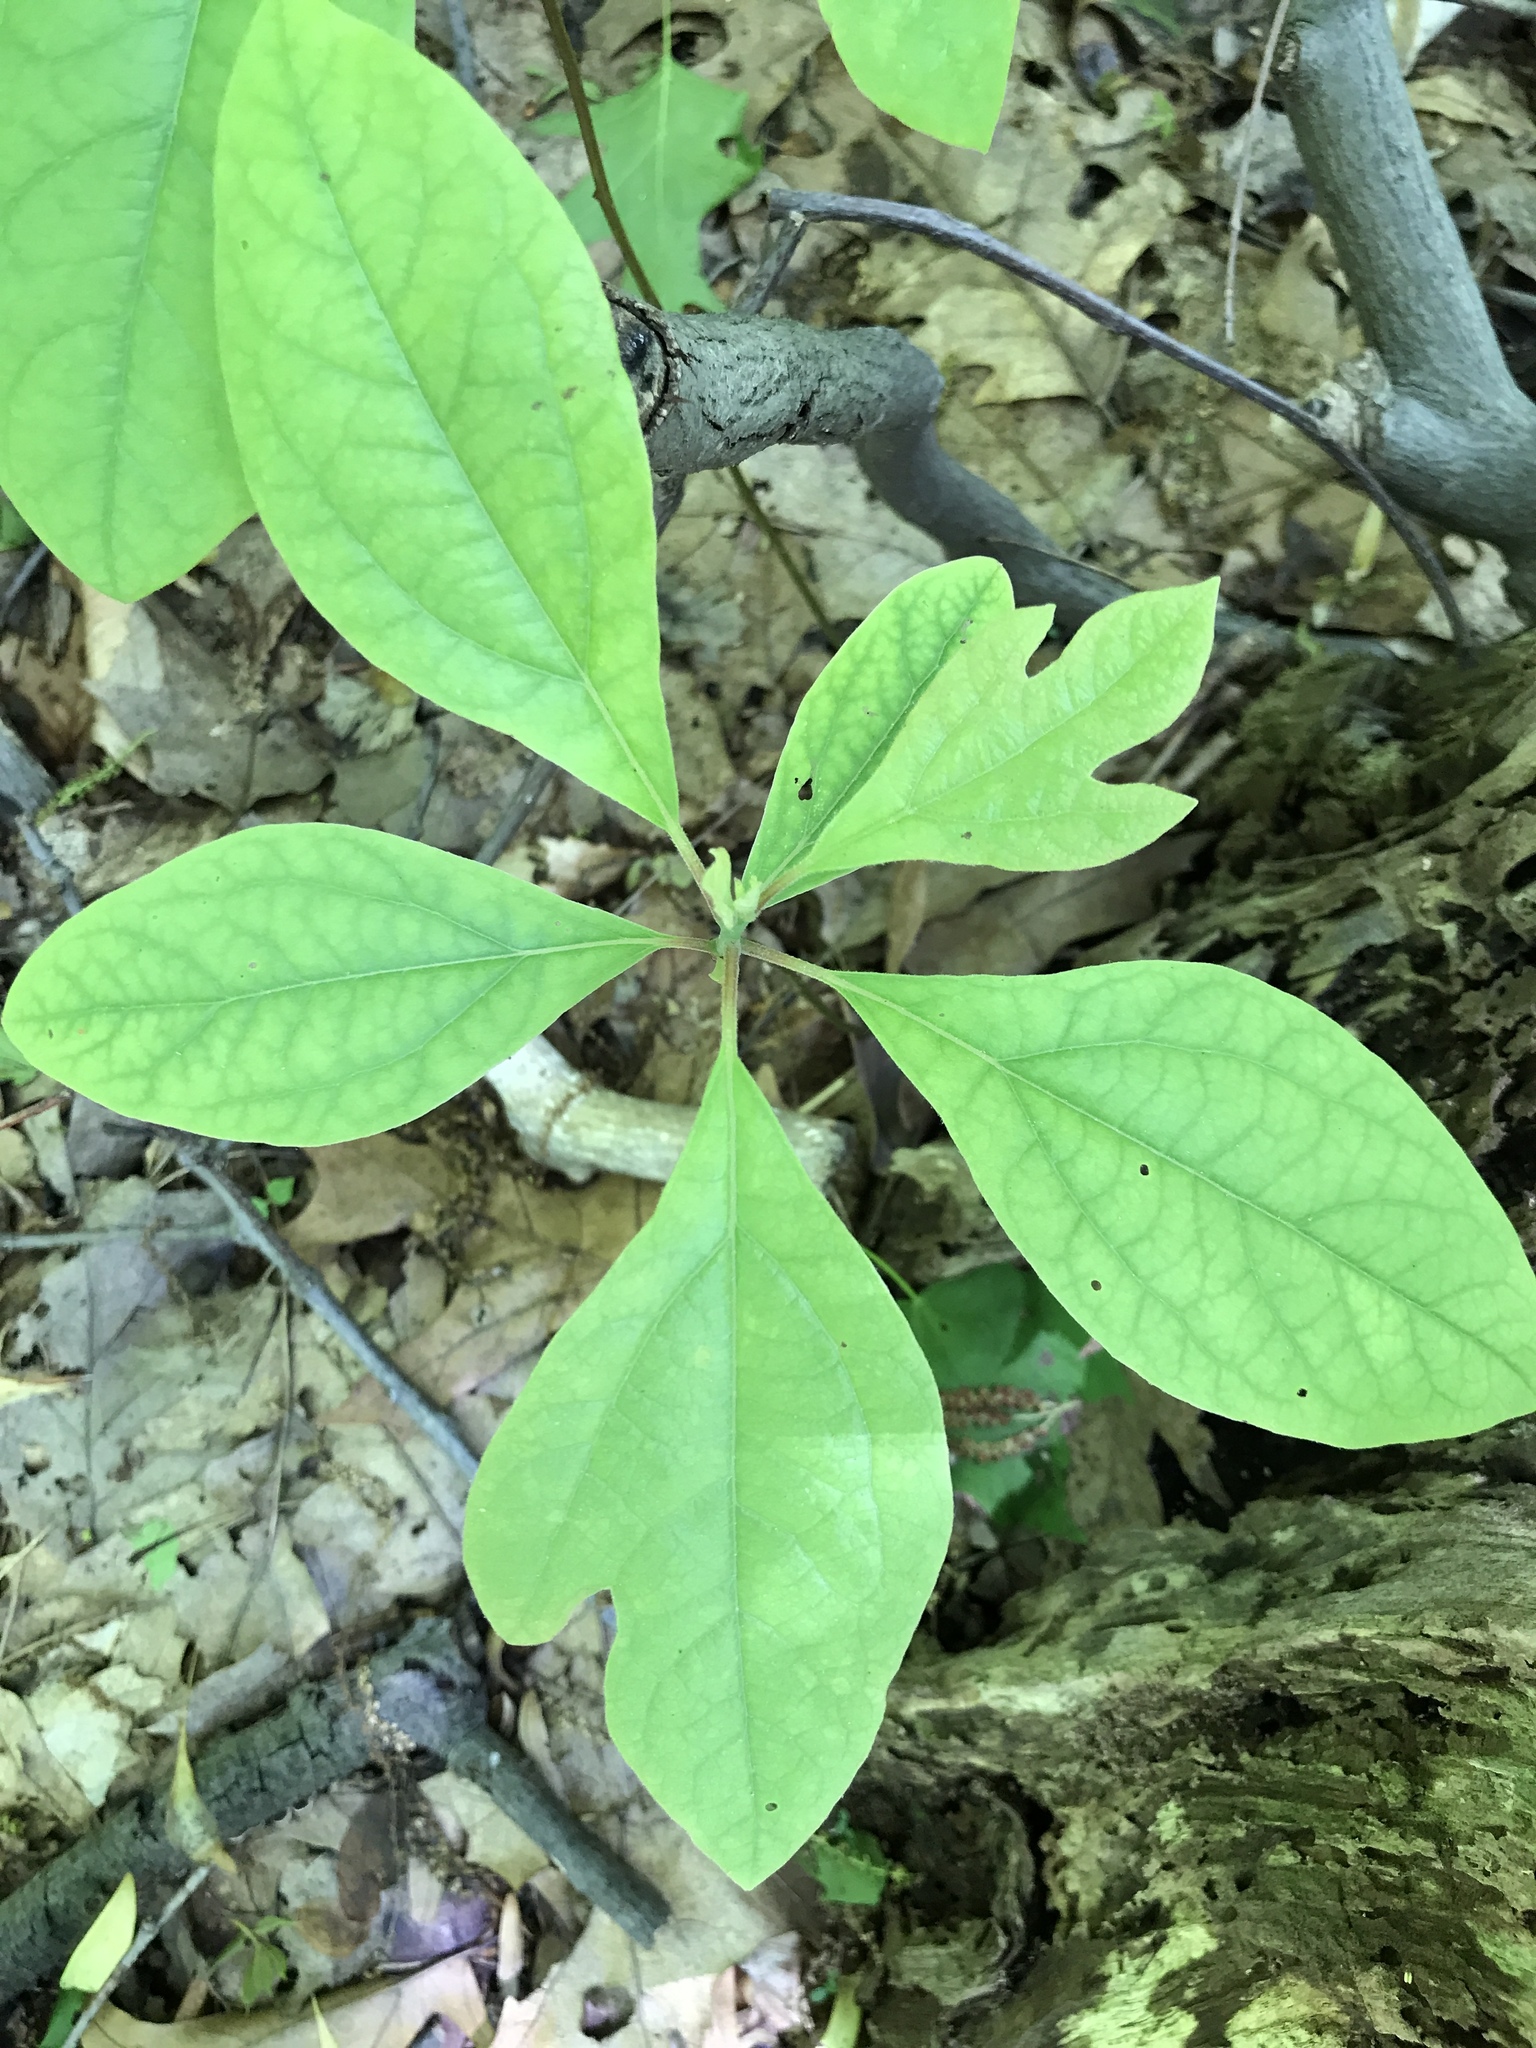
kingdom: Plantae
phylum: Tracheophyta
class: Magnoliopsida
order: Laurales
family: Lauraceae
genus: Sassafras
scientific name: Sassafras albidum
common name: Sassafras
